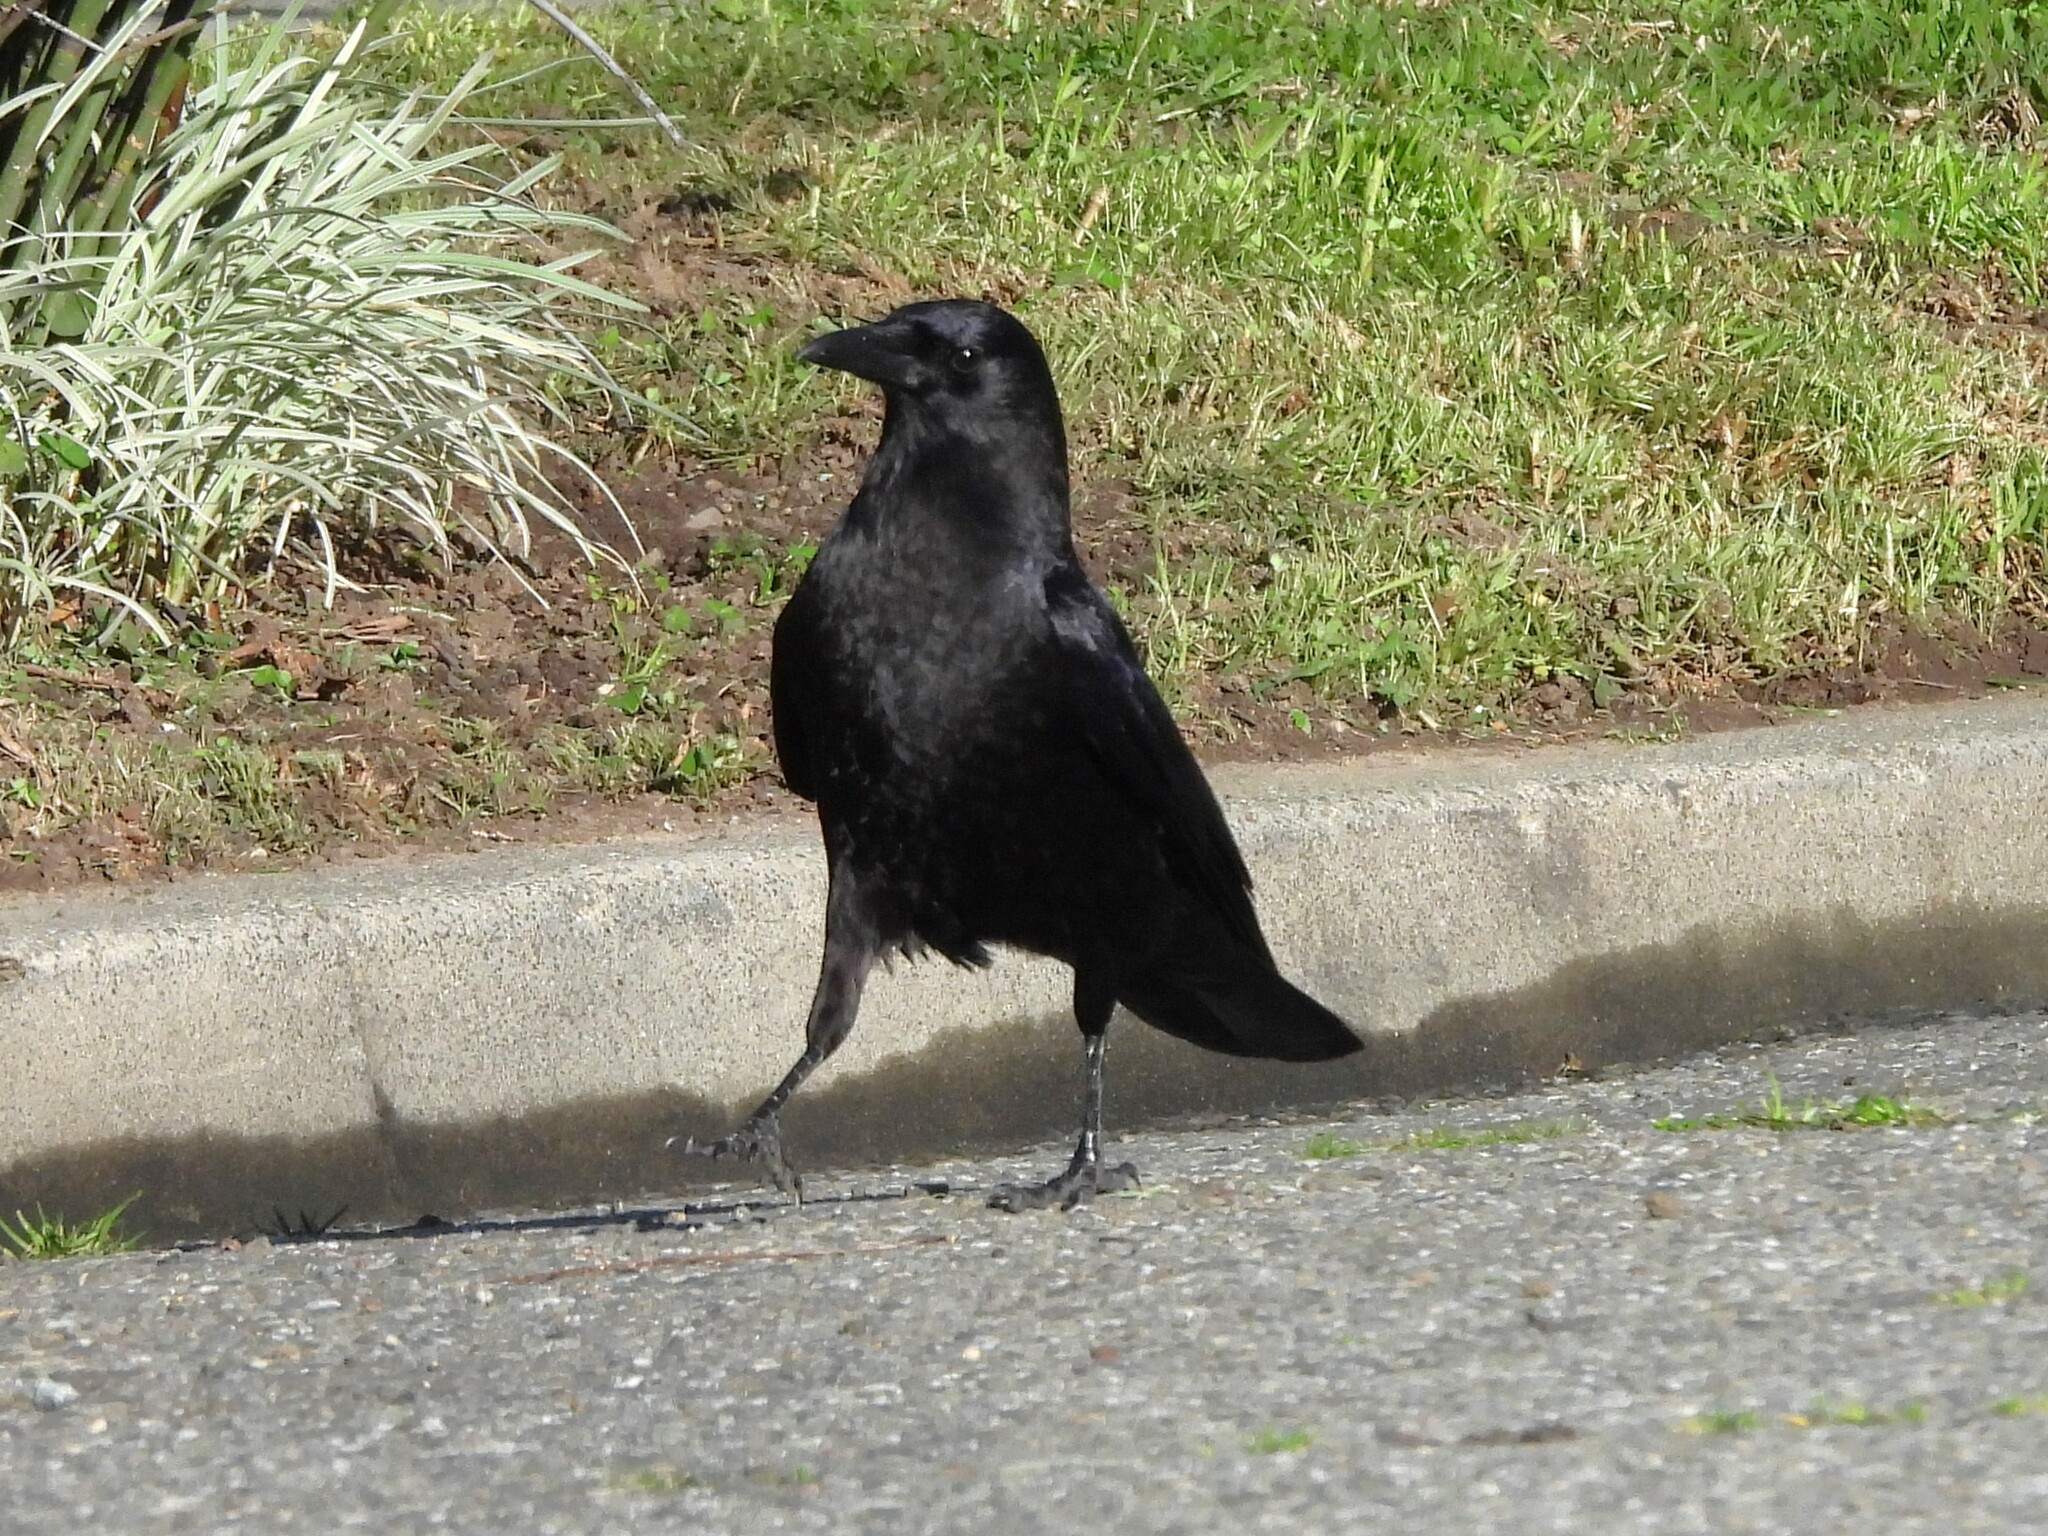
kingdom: Animalia
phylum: Chordata
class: Aves
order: Passeriformes
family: Corvidae
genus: Corvus
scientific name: Corvus brachyrhynchos
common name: American crow
